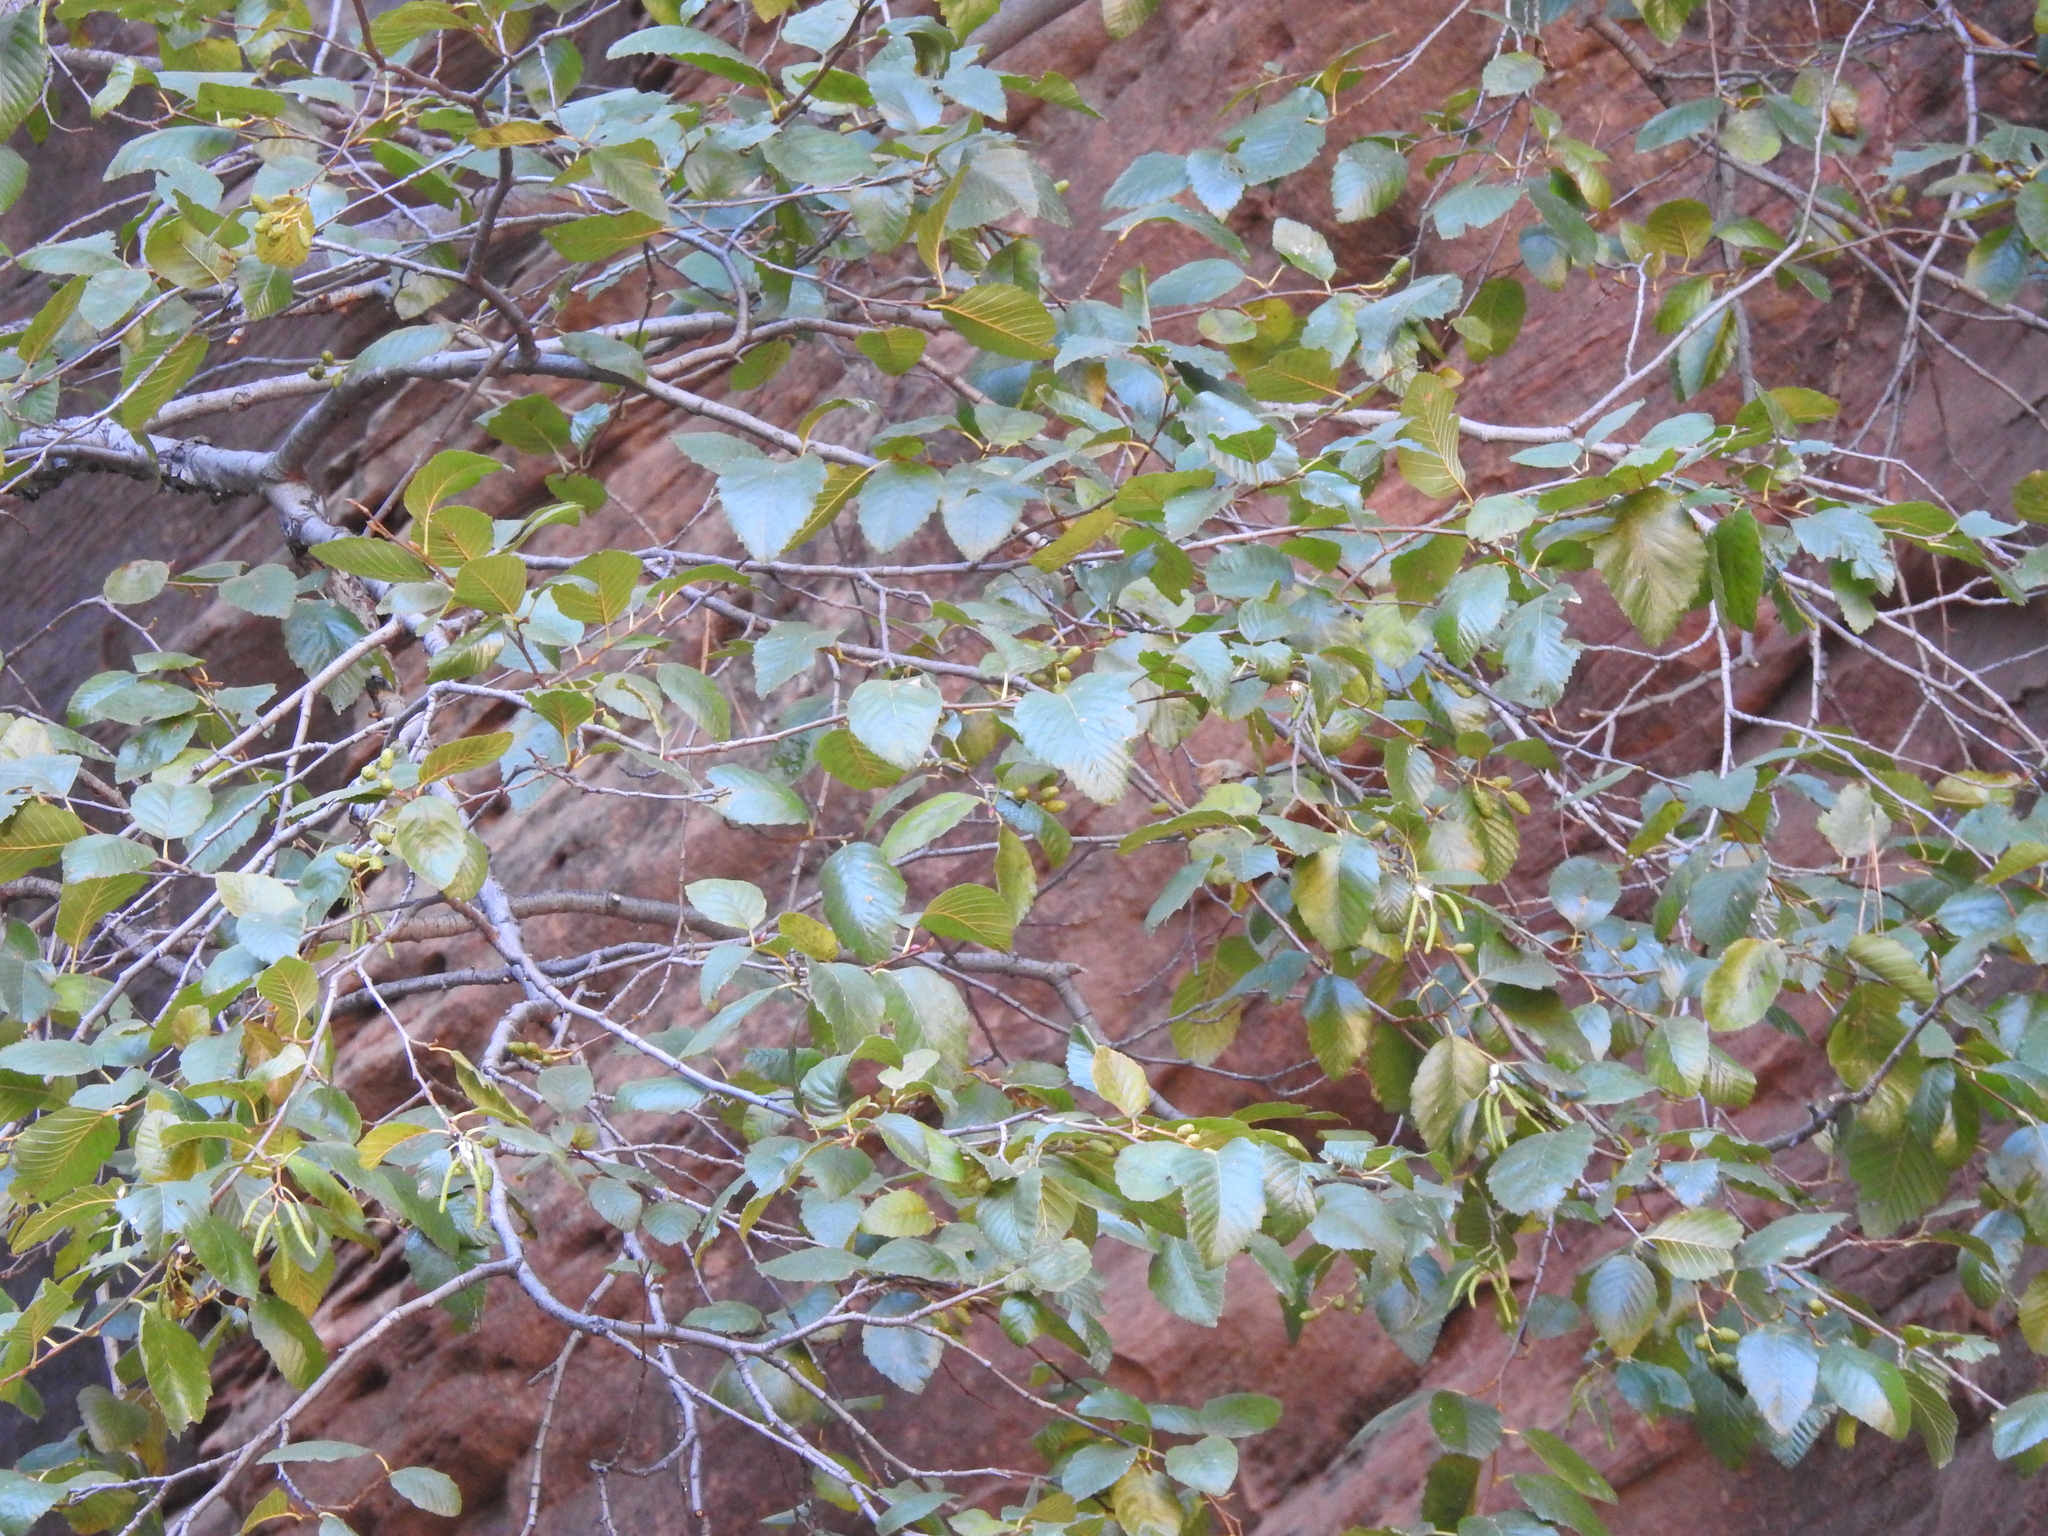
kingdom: Plantae
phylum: Tracheophyta
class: Magnoliopsida
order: Fagales
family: Betulaceae
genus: Alnus
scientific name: Alnus oblongifolia
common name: Arizona alder
